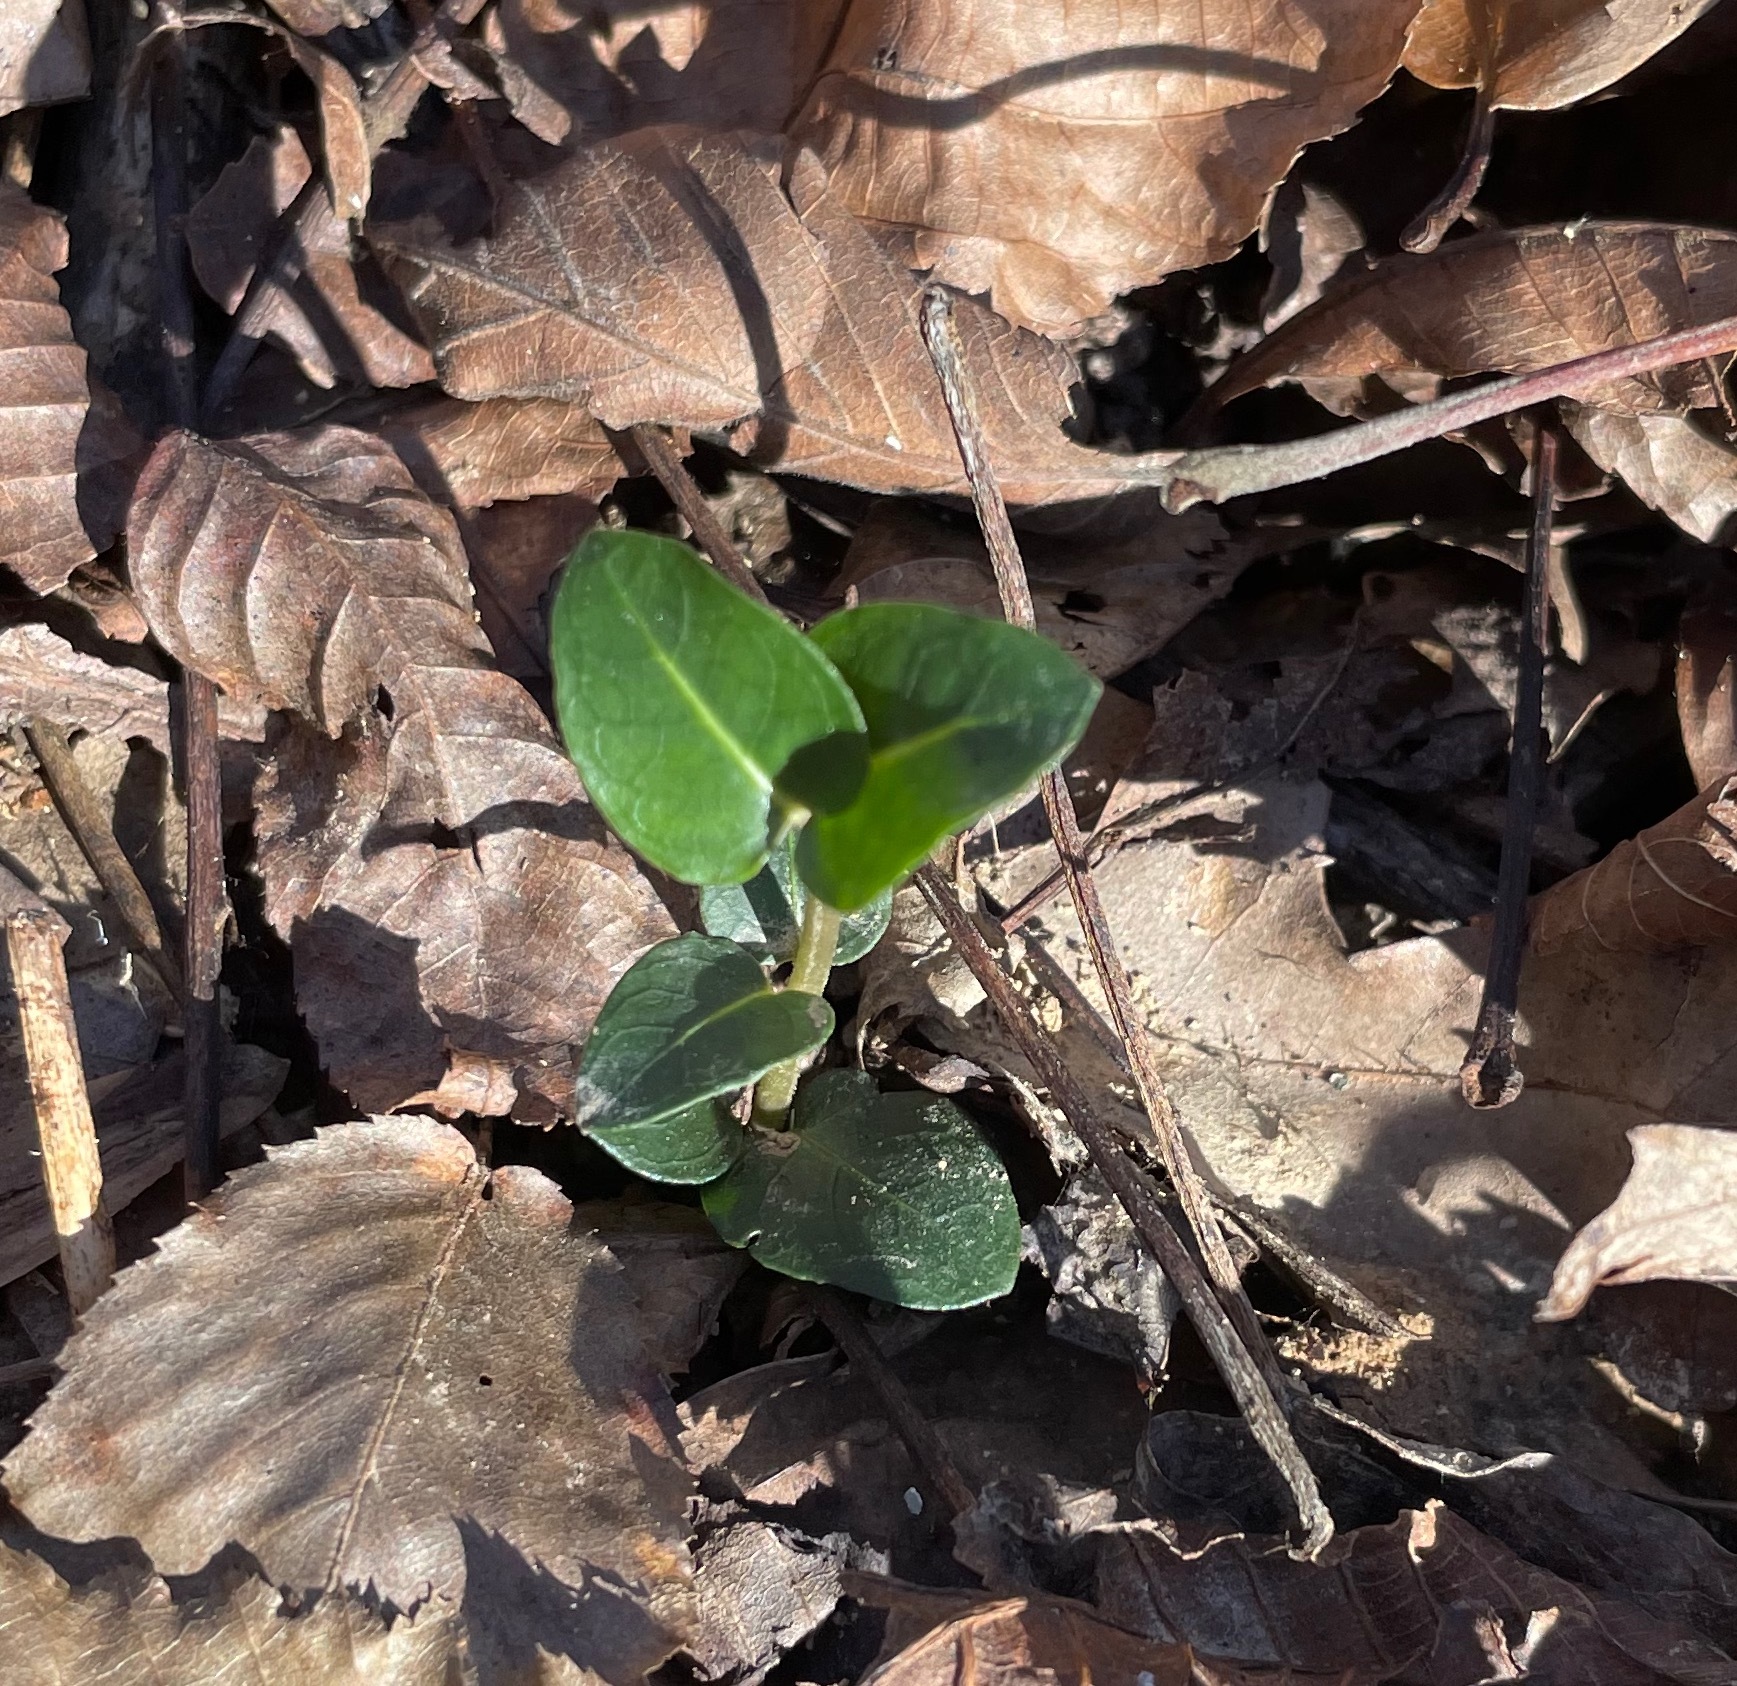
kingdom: Plantae
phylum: Tracheophyta
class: Magnoliopsida
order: Gentianales
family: Rubiaceae
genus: Mitchella
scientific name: Mitchella repens
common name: Partridge-berry
